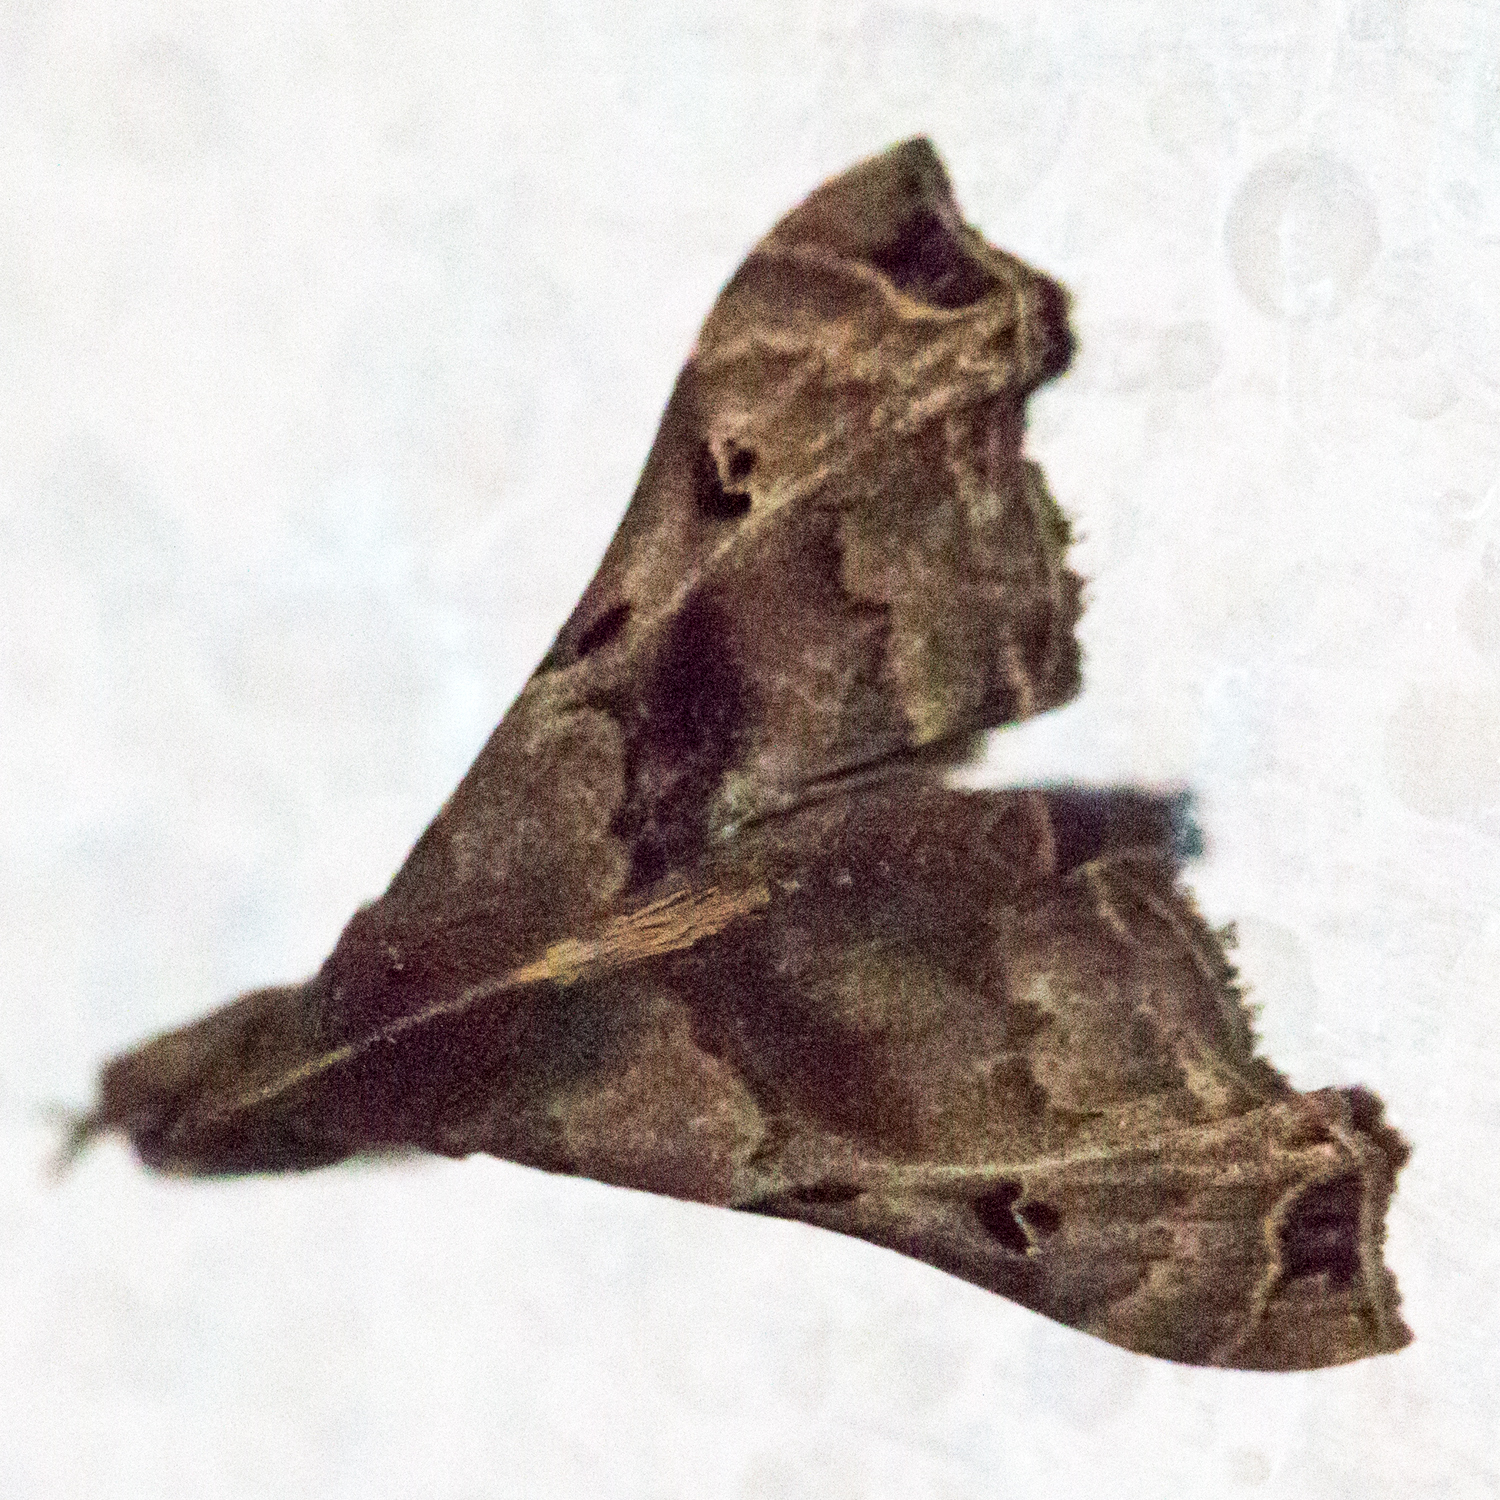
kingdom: Animalia
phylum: Arthropoda
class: Insecta
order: Lepidoptera
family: Erebidae
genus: Palthis
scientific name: Palthis asopialis
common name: Faint-spotted palthis moth
